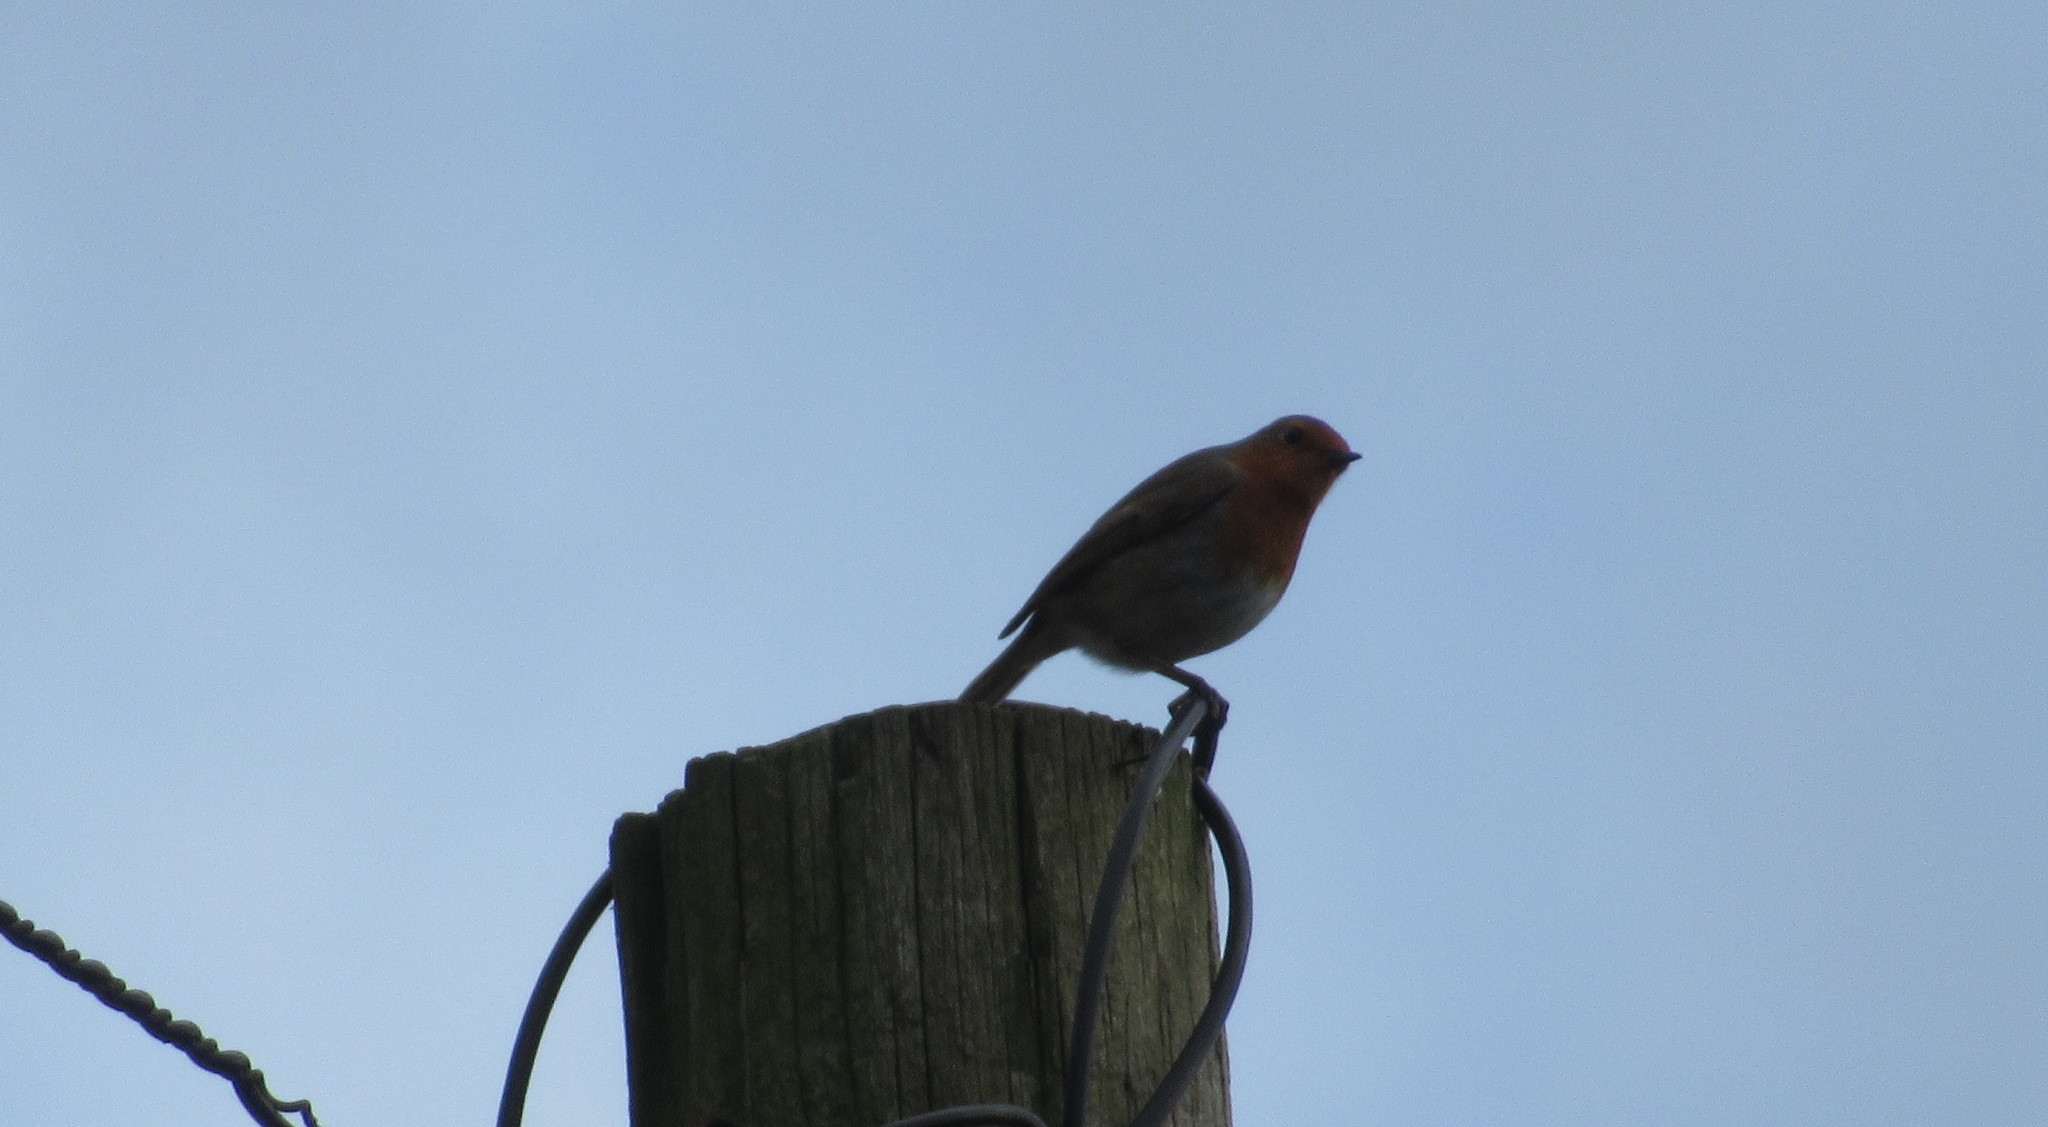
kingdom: Animalia
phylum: Chordata
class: Aves
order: Passeriformes
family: Muscicapidae
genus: Erithacus
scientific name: Erithacus rubecula
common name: European robin
